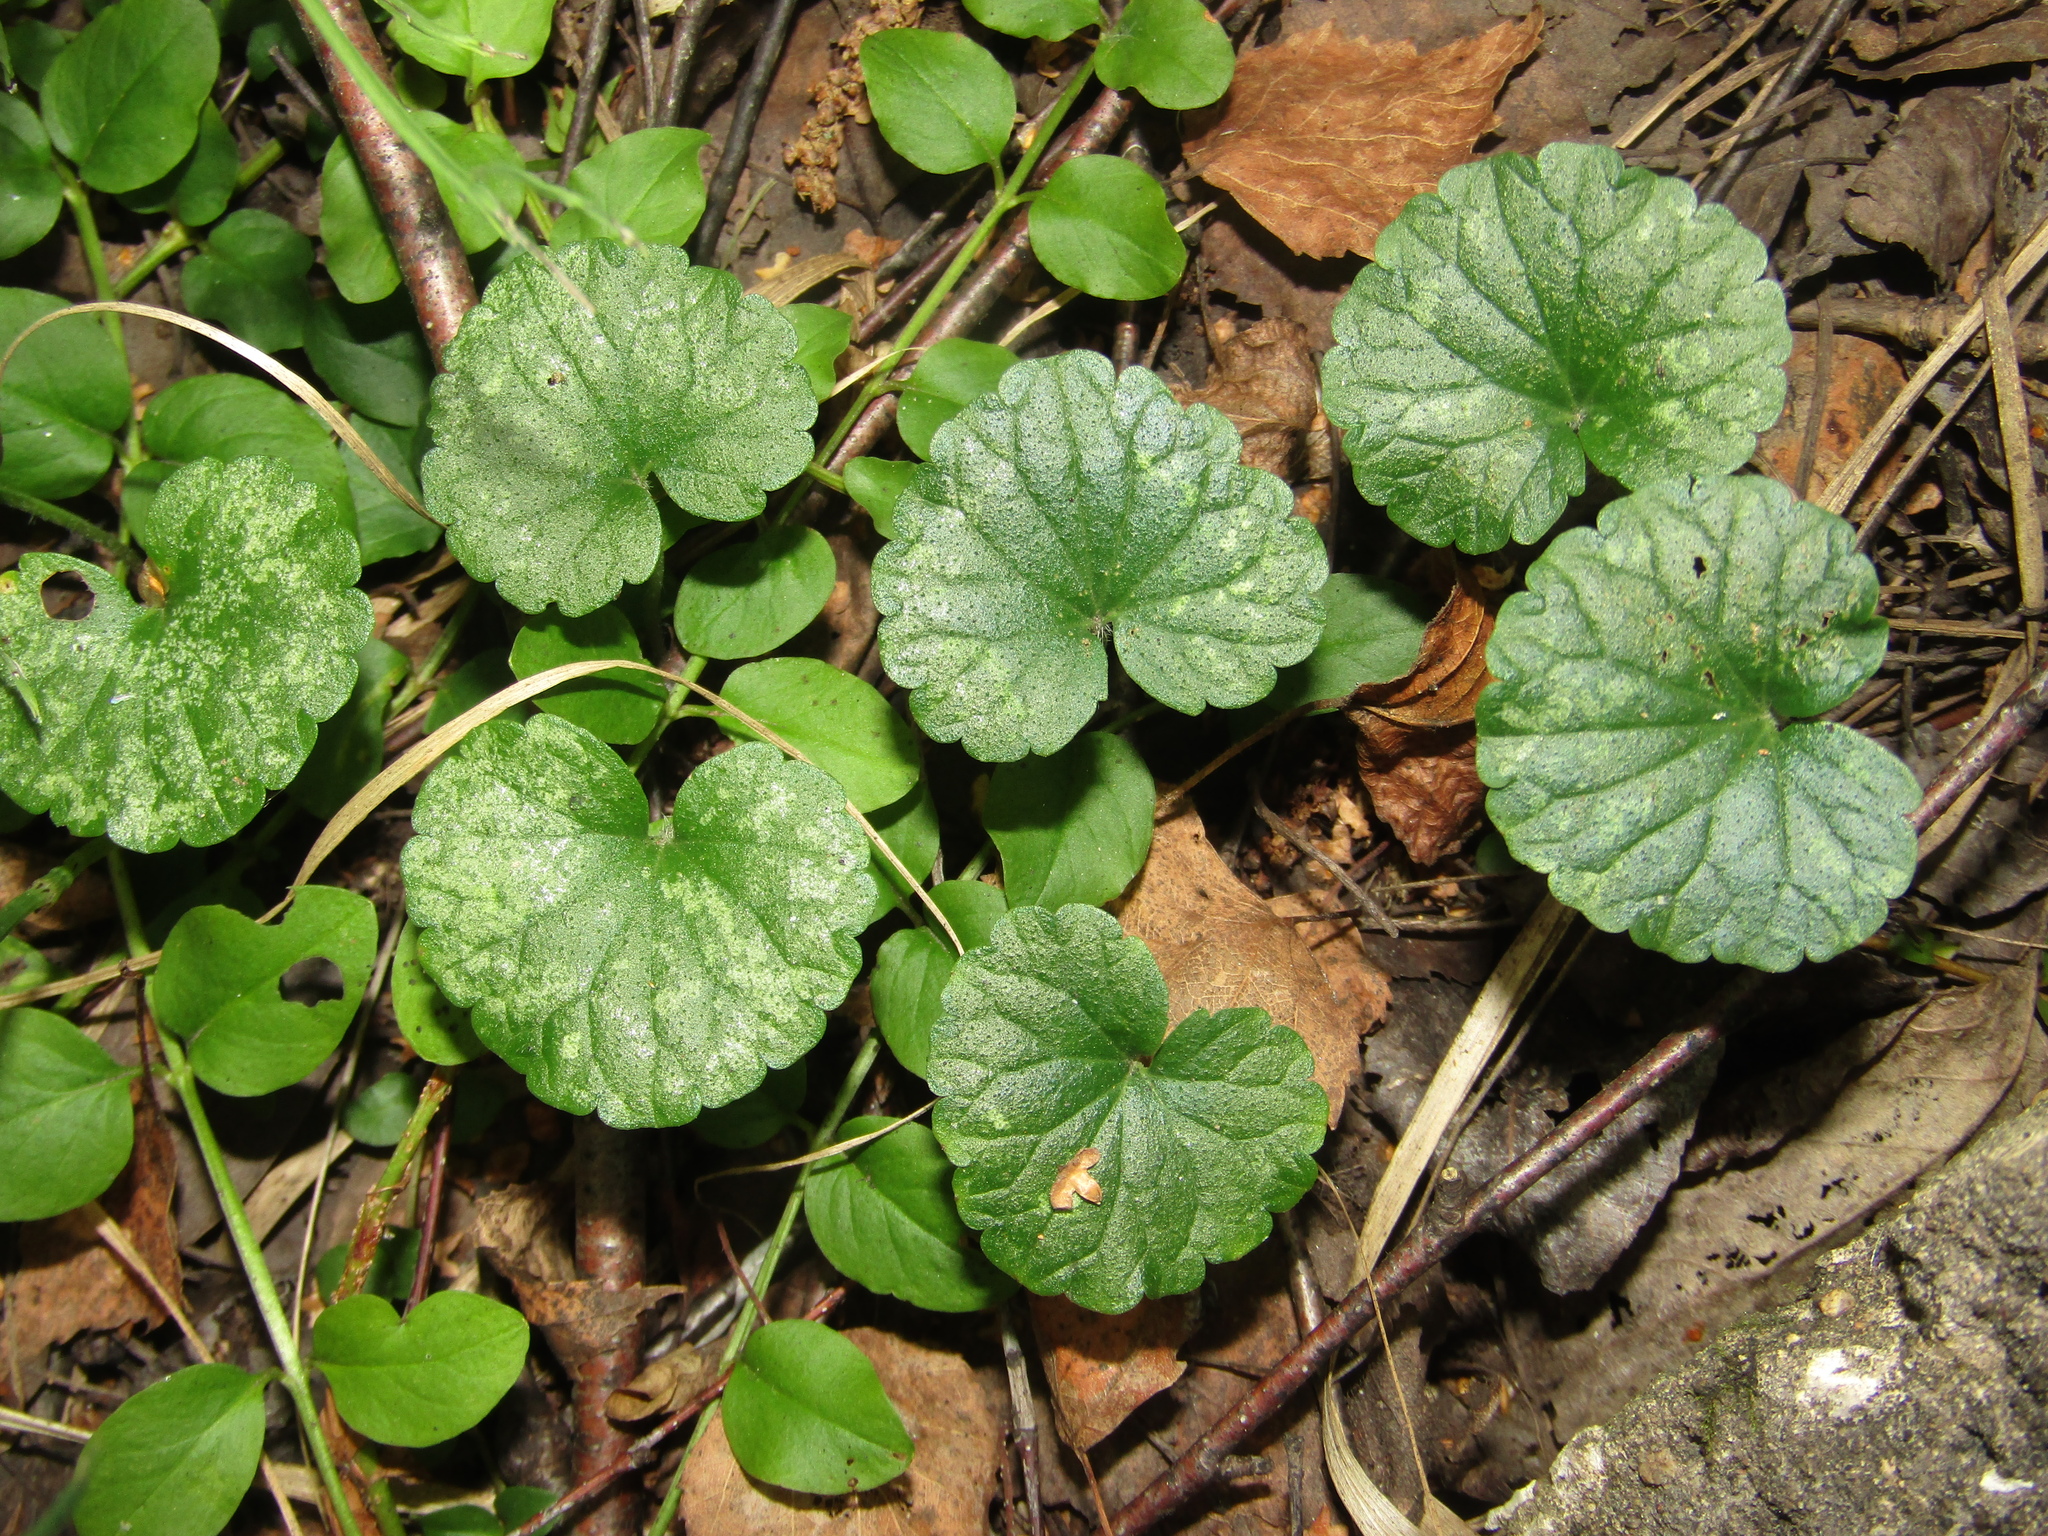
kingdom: Plantae
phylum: Tracheophyta
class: Magnoliopsida
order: Lamiales
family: Lamiaceae
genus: Glechoma
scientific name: Glechoma hederacea
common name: Ground ivy
